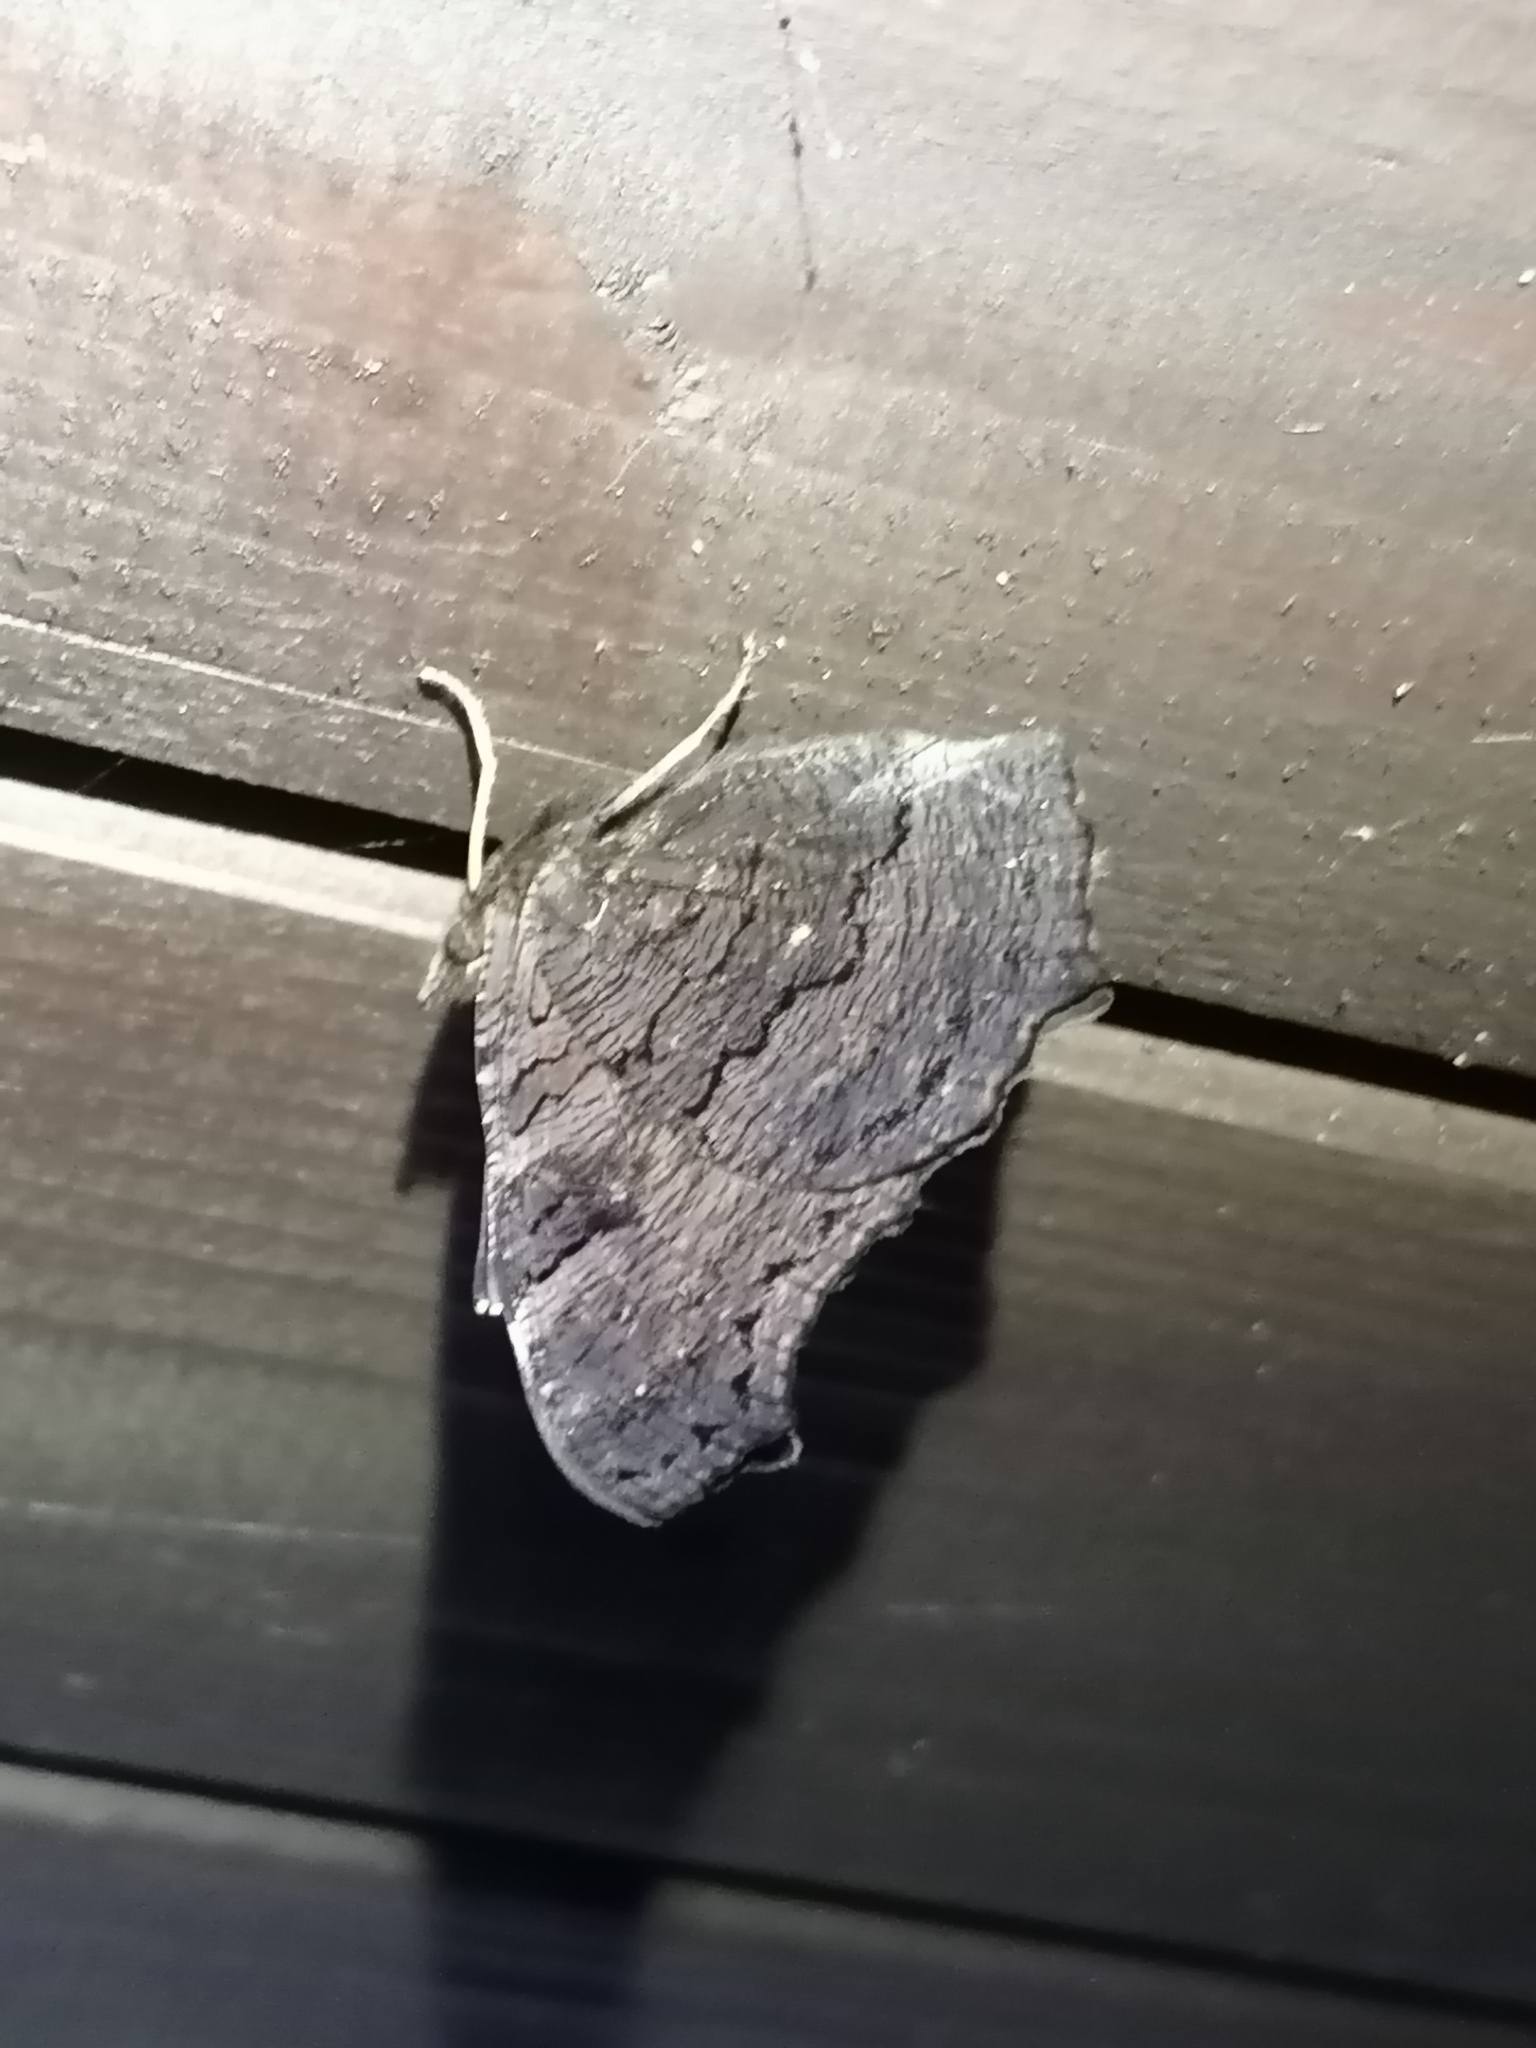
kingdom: Animalia
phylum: Arthropoda
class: Insecta
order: Lepidoptera
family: Nymphalidae
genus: Aglais
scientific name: Aglais io
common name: Peacock
